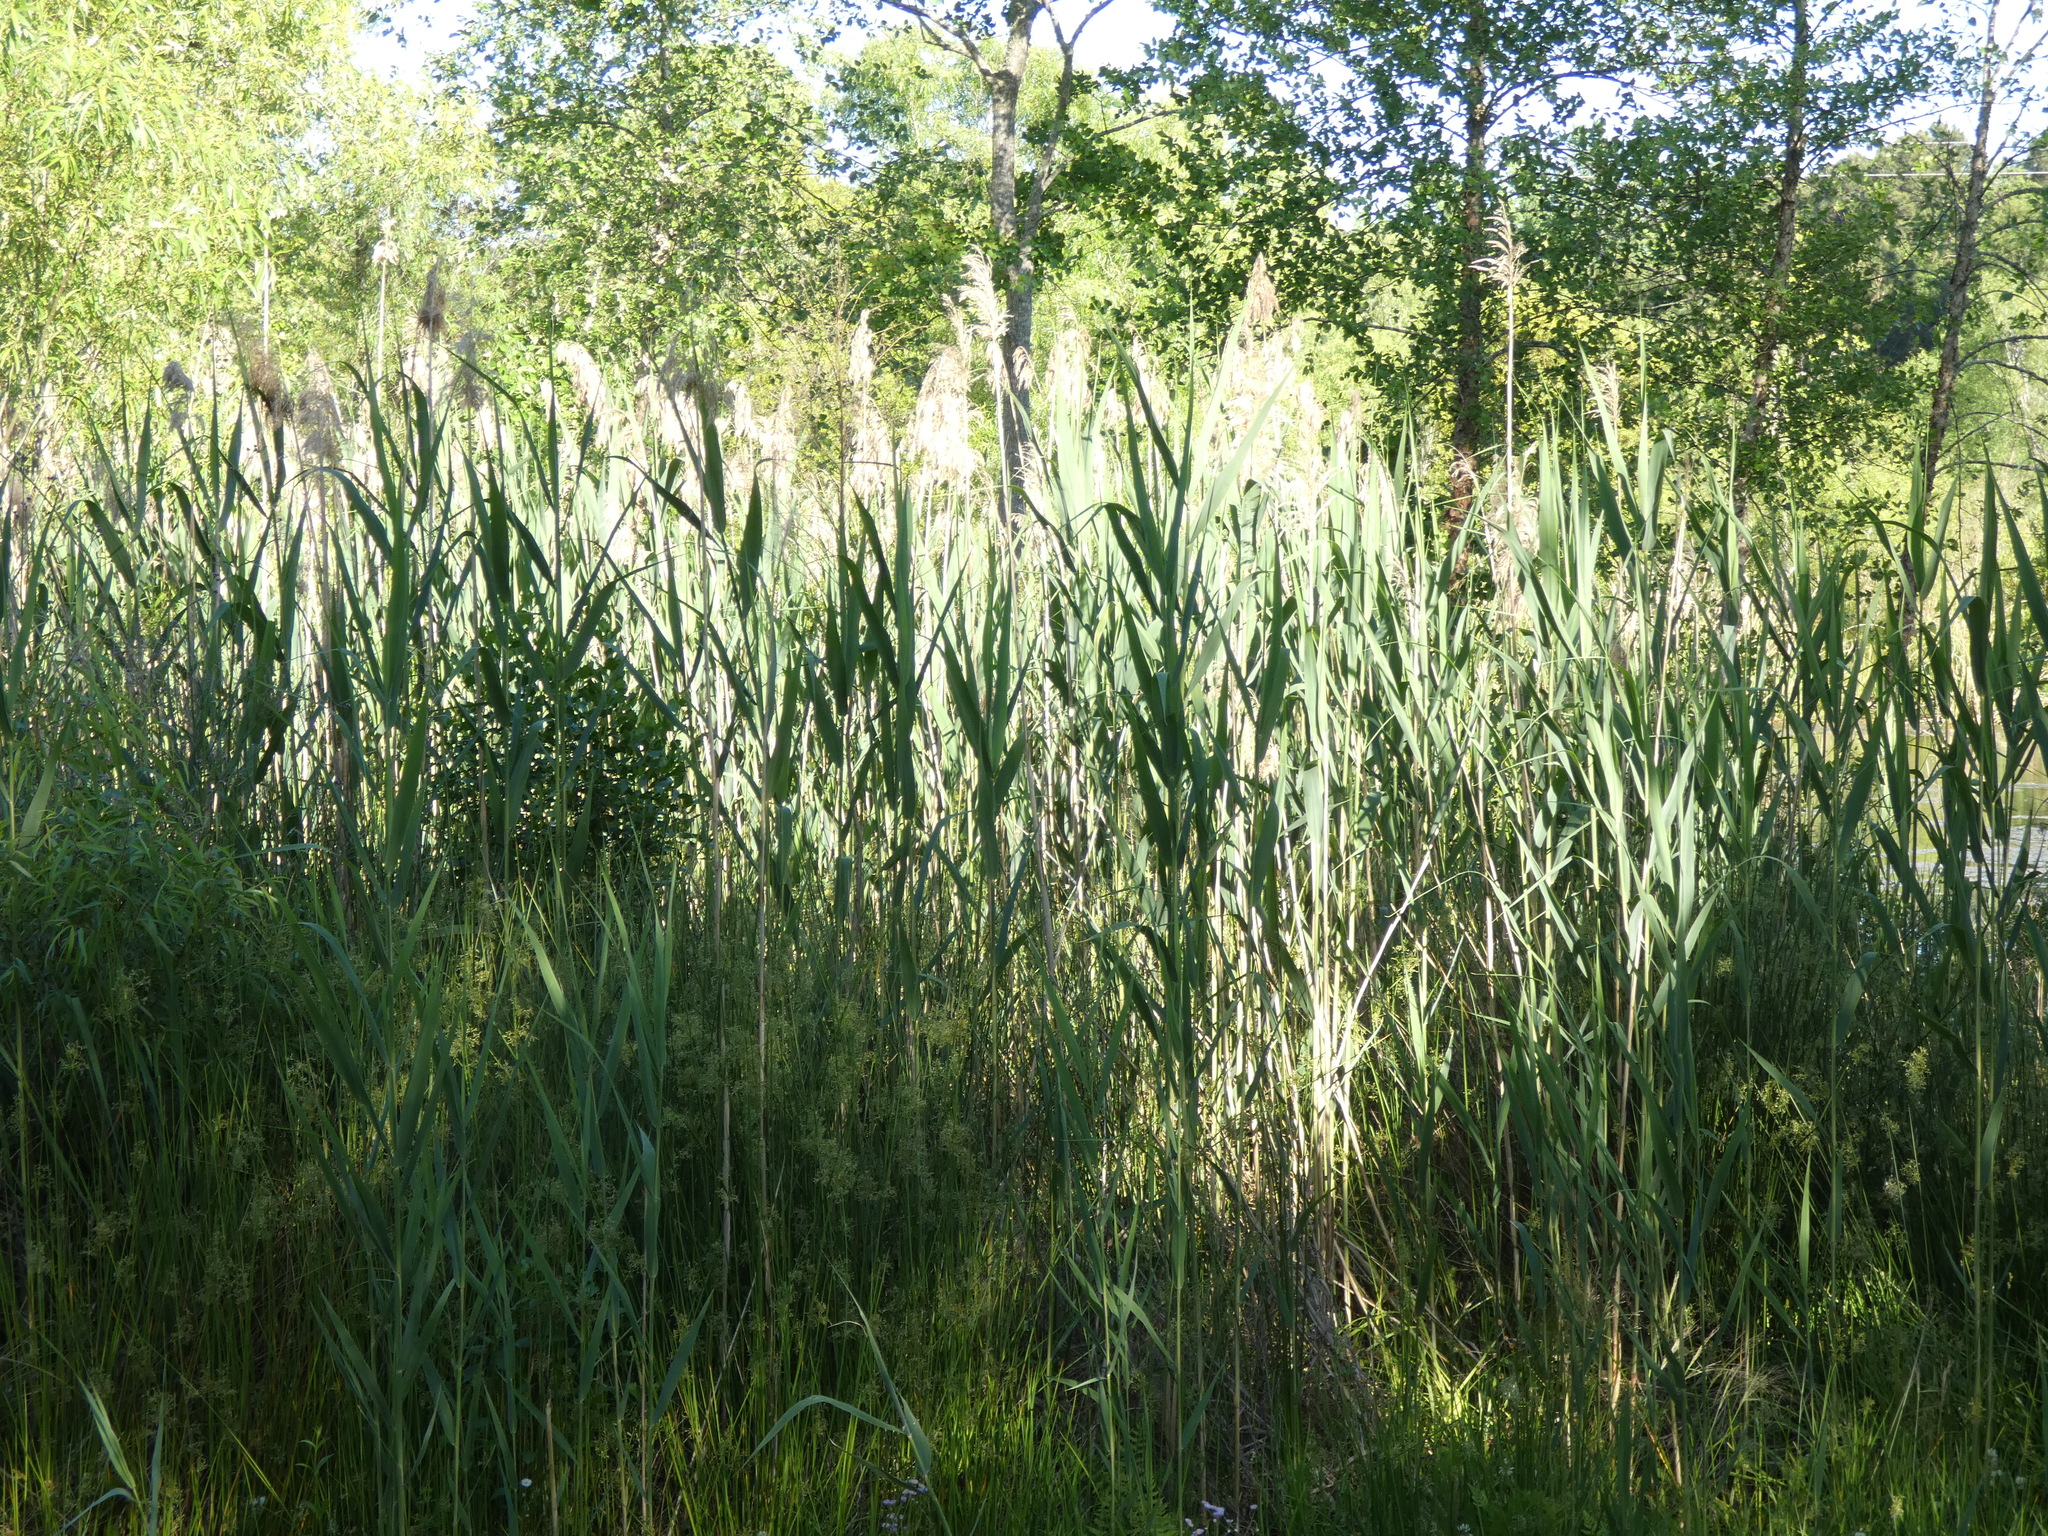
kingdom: Plantae
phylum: Tracheophyta
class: Liliopsida
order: Poales
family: Poaceae
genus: Phragmites
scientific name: Phragmites australis
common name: Common reed
